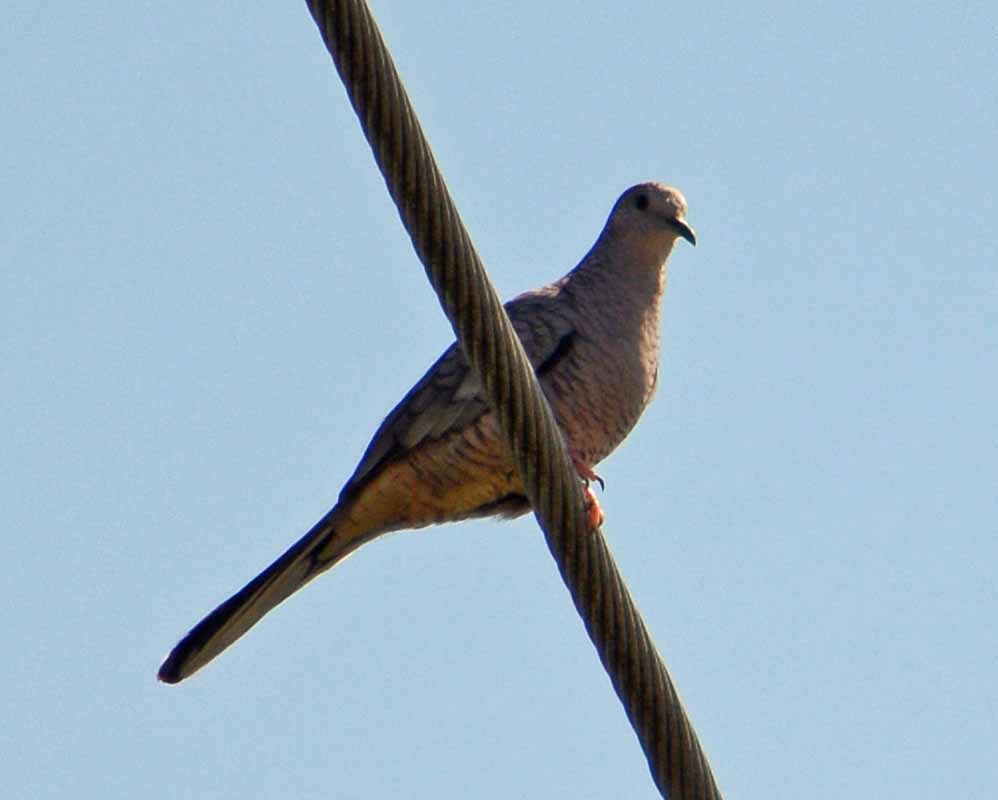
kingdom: Animalia
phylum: Chordata
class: Aves
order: Columbiformes
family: Columbidae
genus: Columbina
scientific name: Columbina inca
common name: Inca dove
